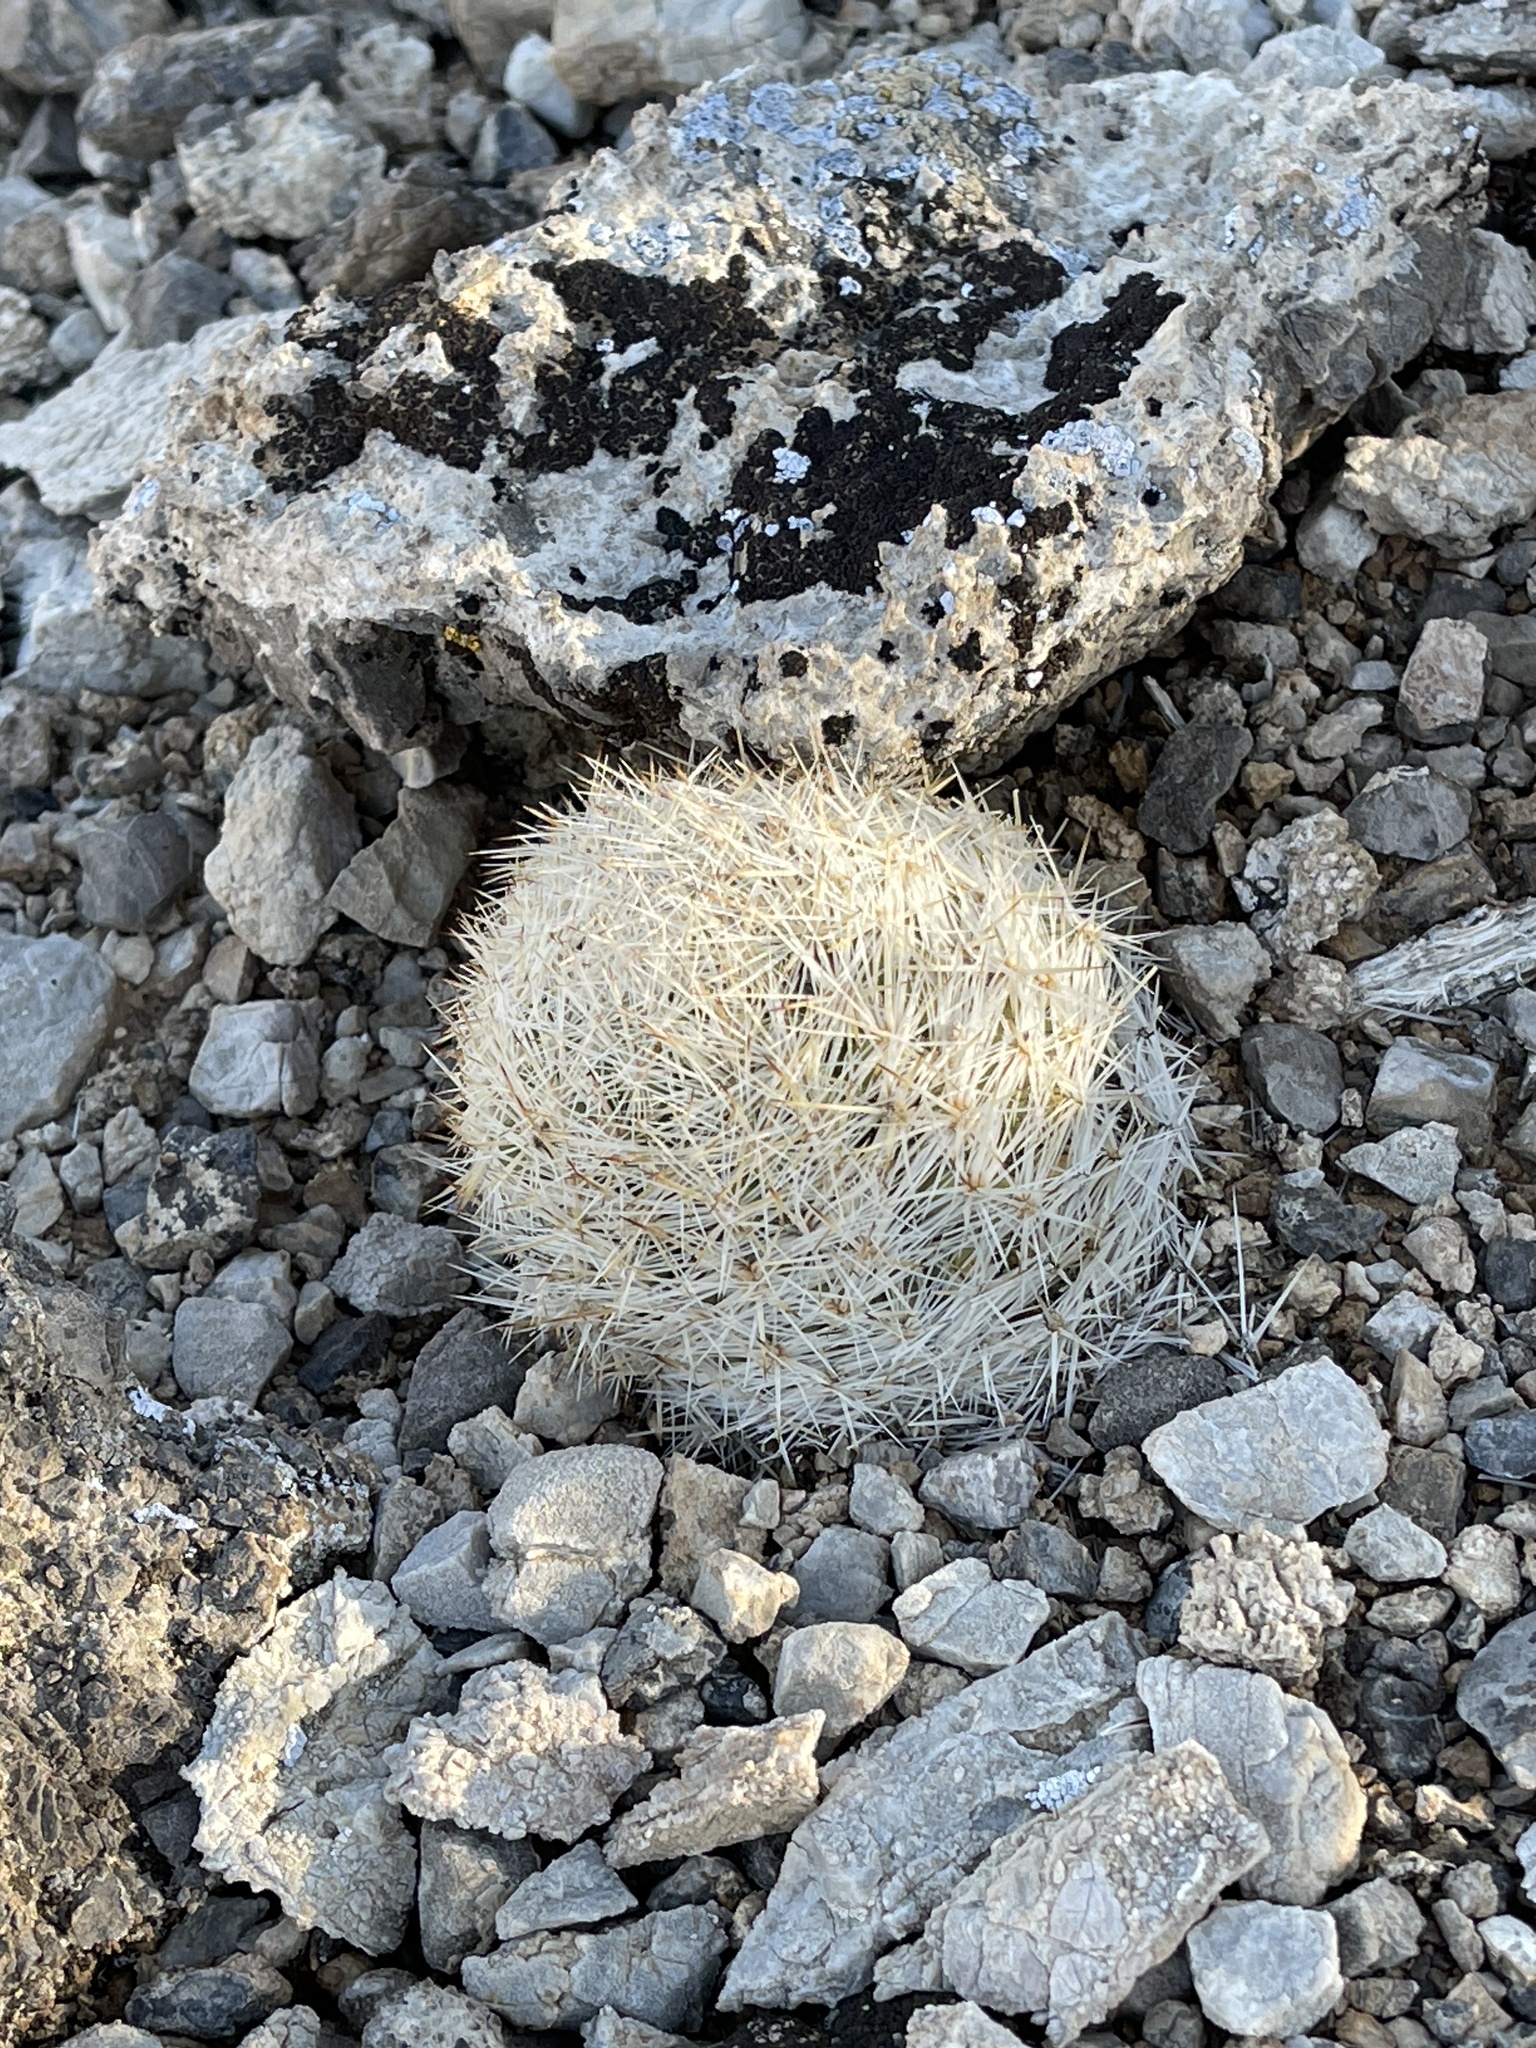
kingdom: Plantae
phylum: Tracheophyta
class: Magnoliopsida
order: Caryophyllales
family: Cactaceae
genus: Pelecyphora
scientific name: Pelecyphora dasyacantha
